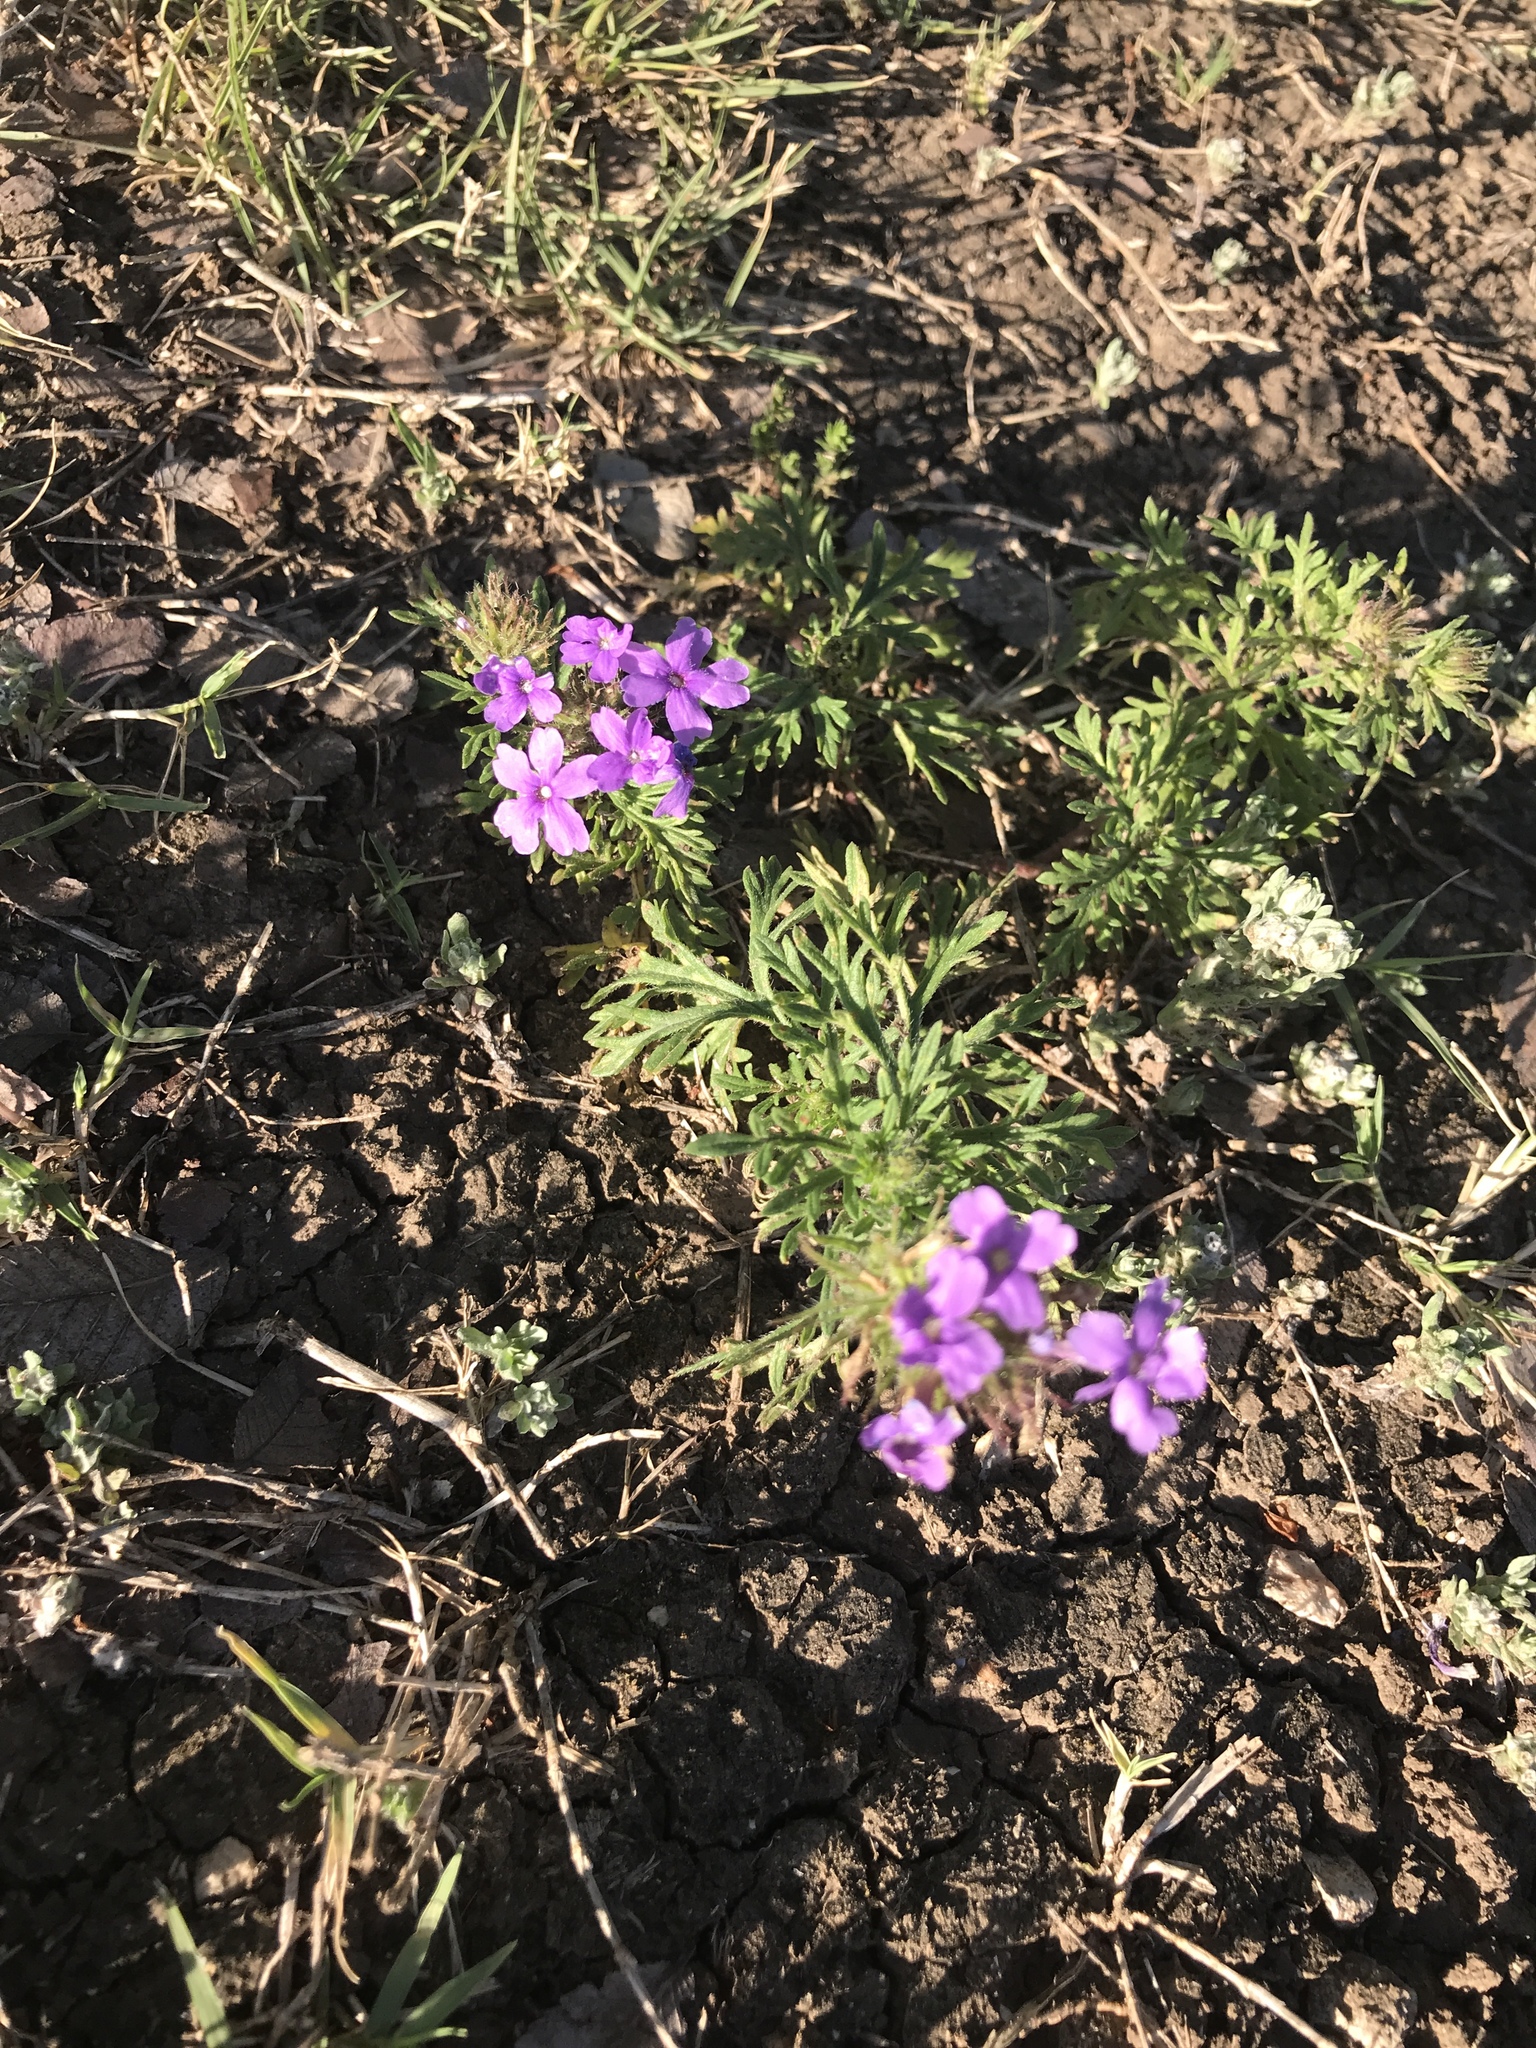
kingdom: Plantae
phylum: Tracheophyta
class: Magnoliopsida
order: Lamiales
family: Verbenaceae
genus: Verbena
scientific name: Verbena bipinnatifida
